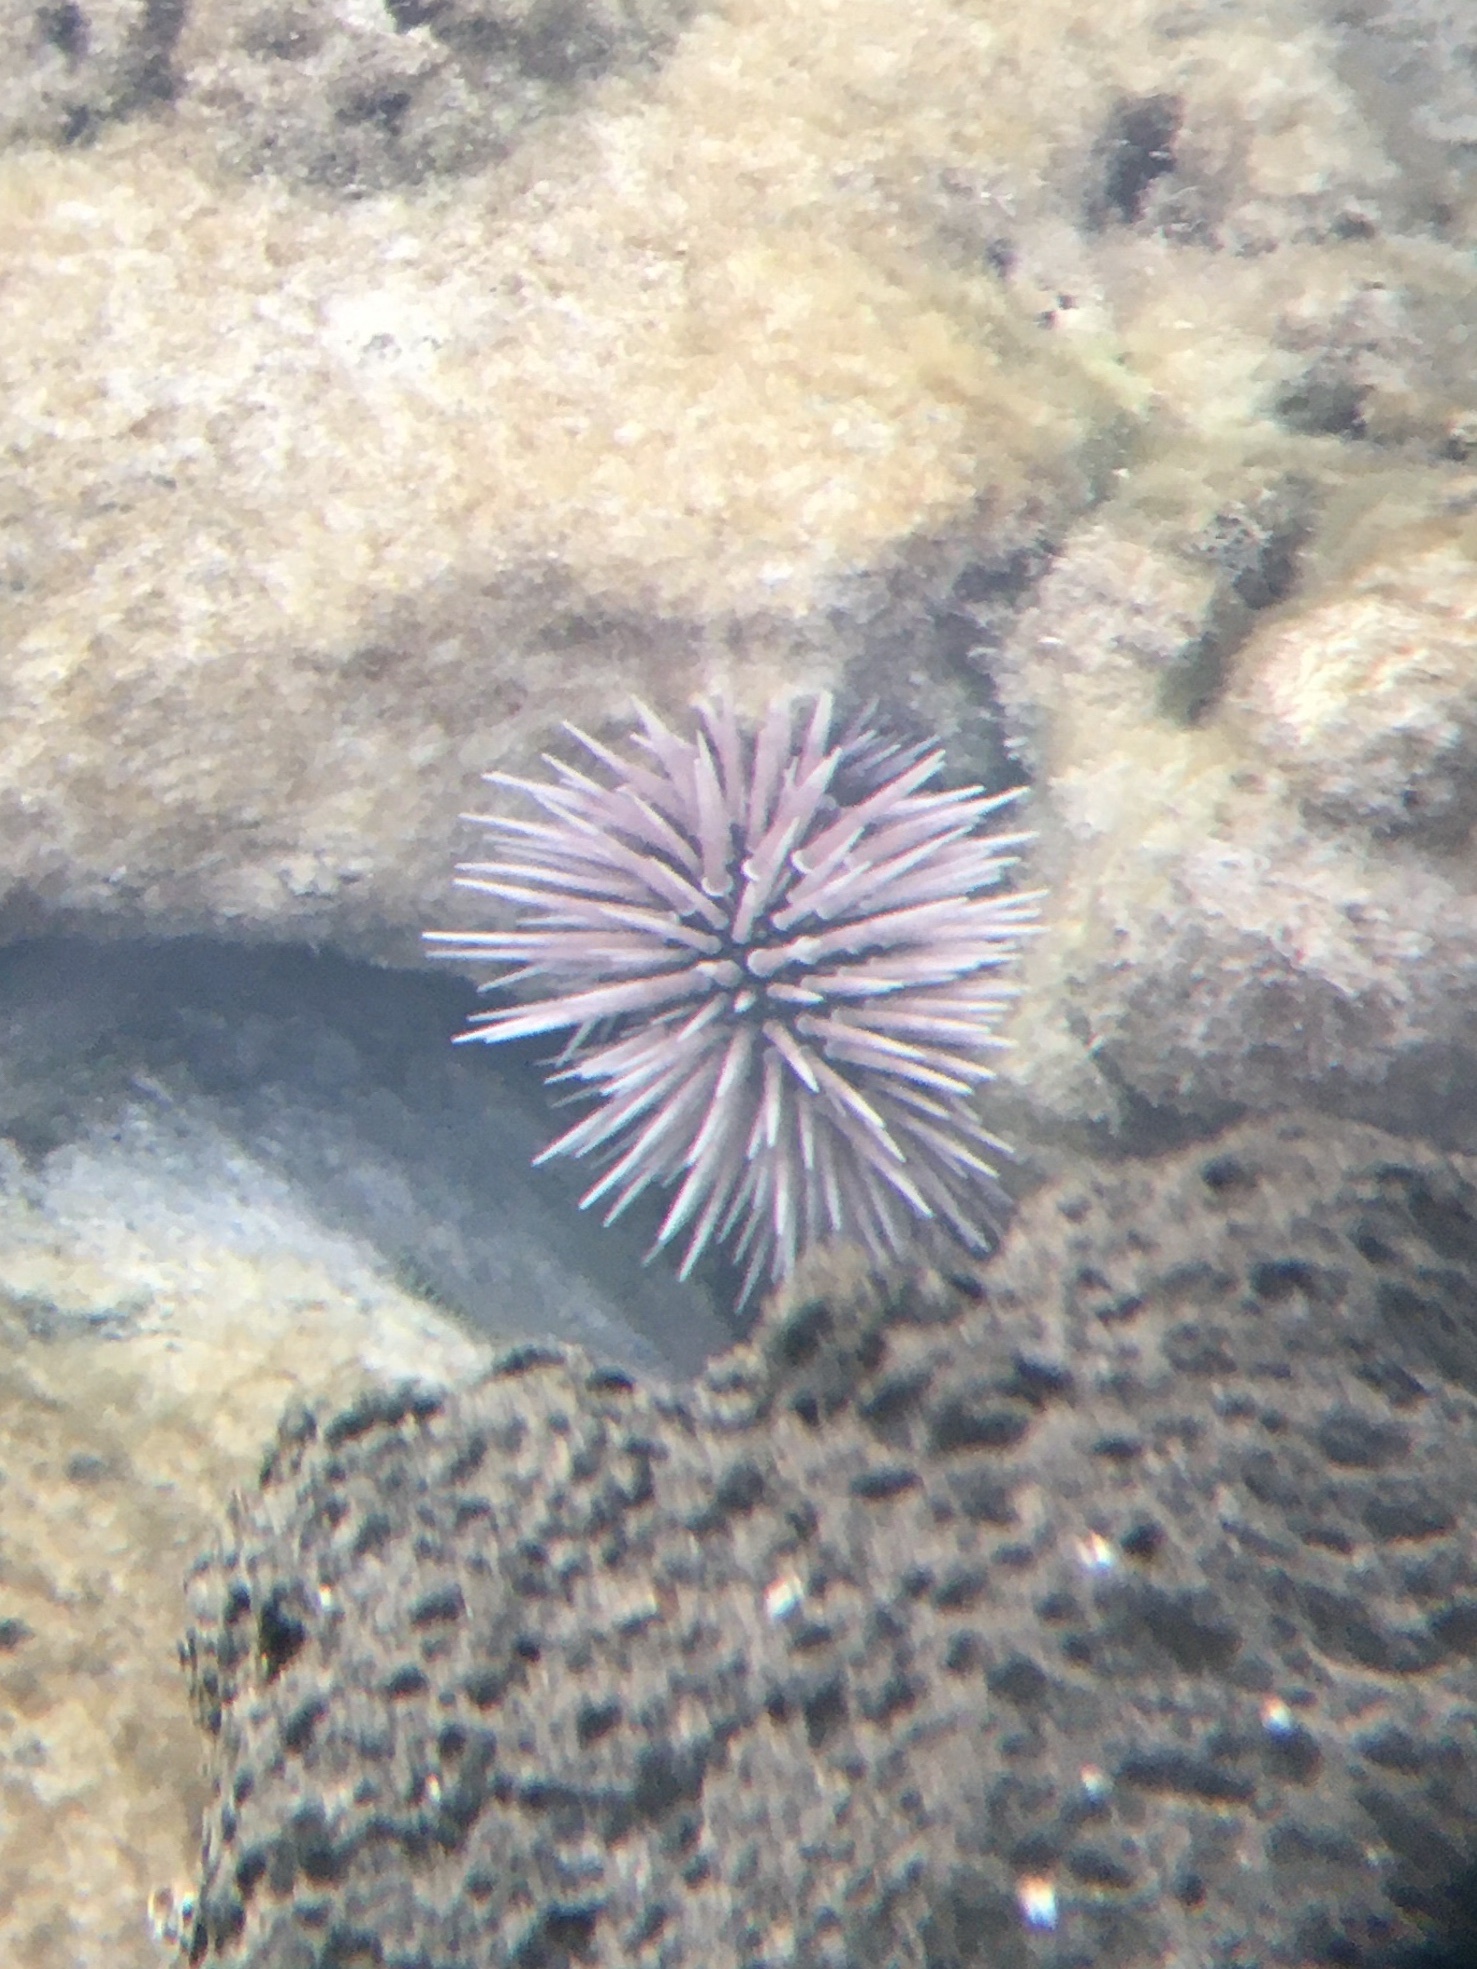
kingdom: Animalia
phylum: Echinodermata
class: Echinoidea
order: Camarodonta
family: Echinometridae
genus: Echinometra
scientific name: Echinometra mathaei
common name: Rock-boring urchin
